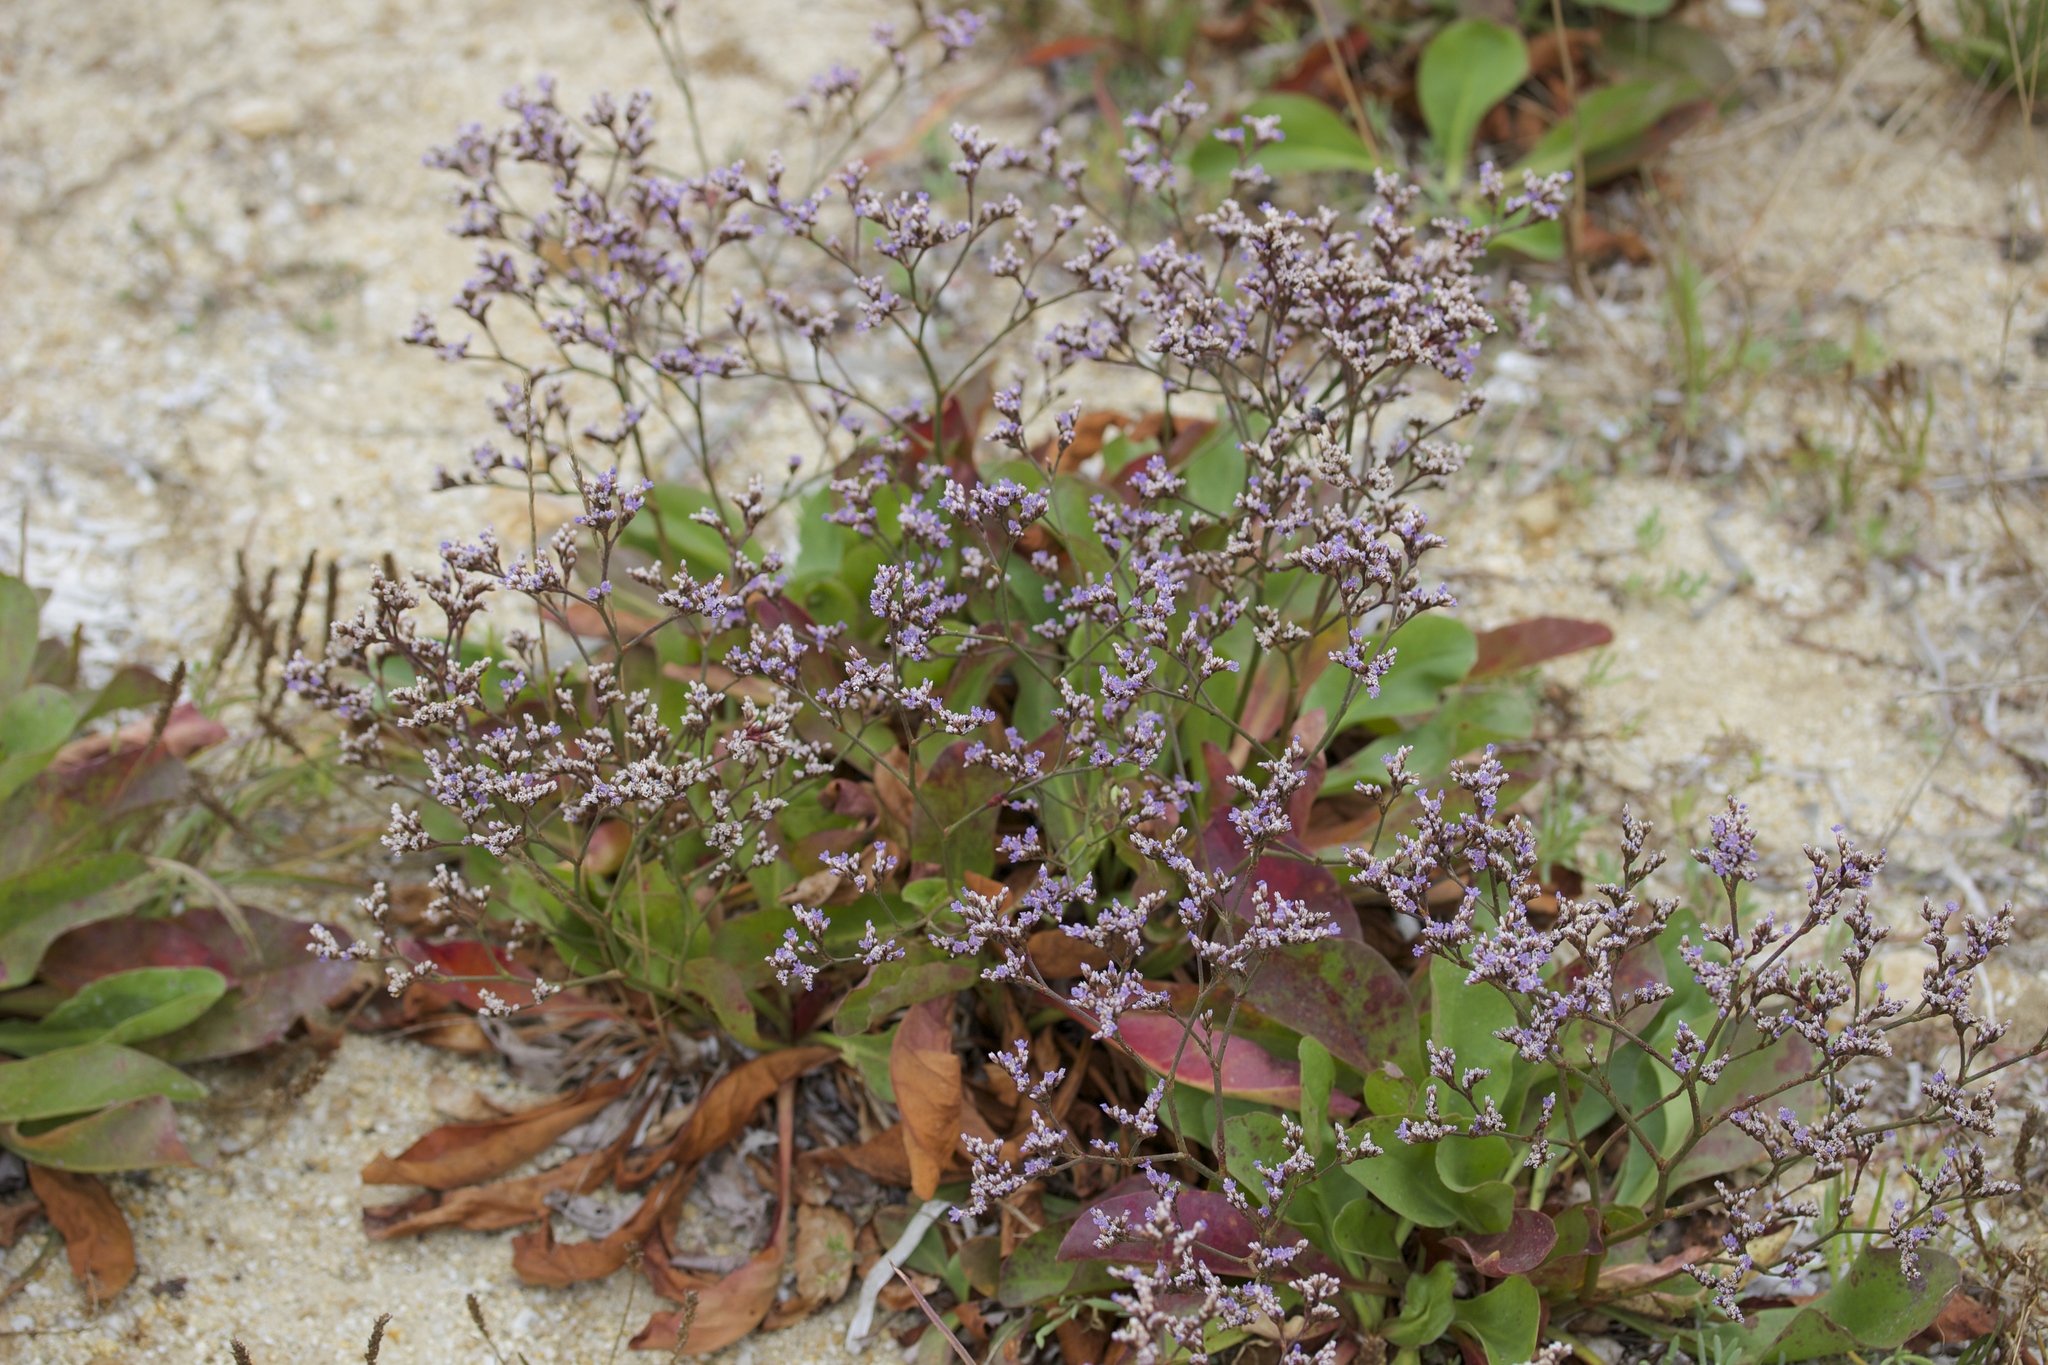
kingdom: Plantae
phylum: Tracheophyta
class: Magnoliopsida
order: Caryophyllales
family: Plumbaginaceae
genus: Limonium
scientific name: Limonium californicum
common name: Marsh-rosemary
